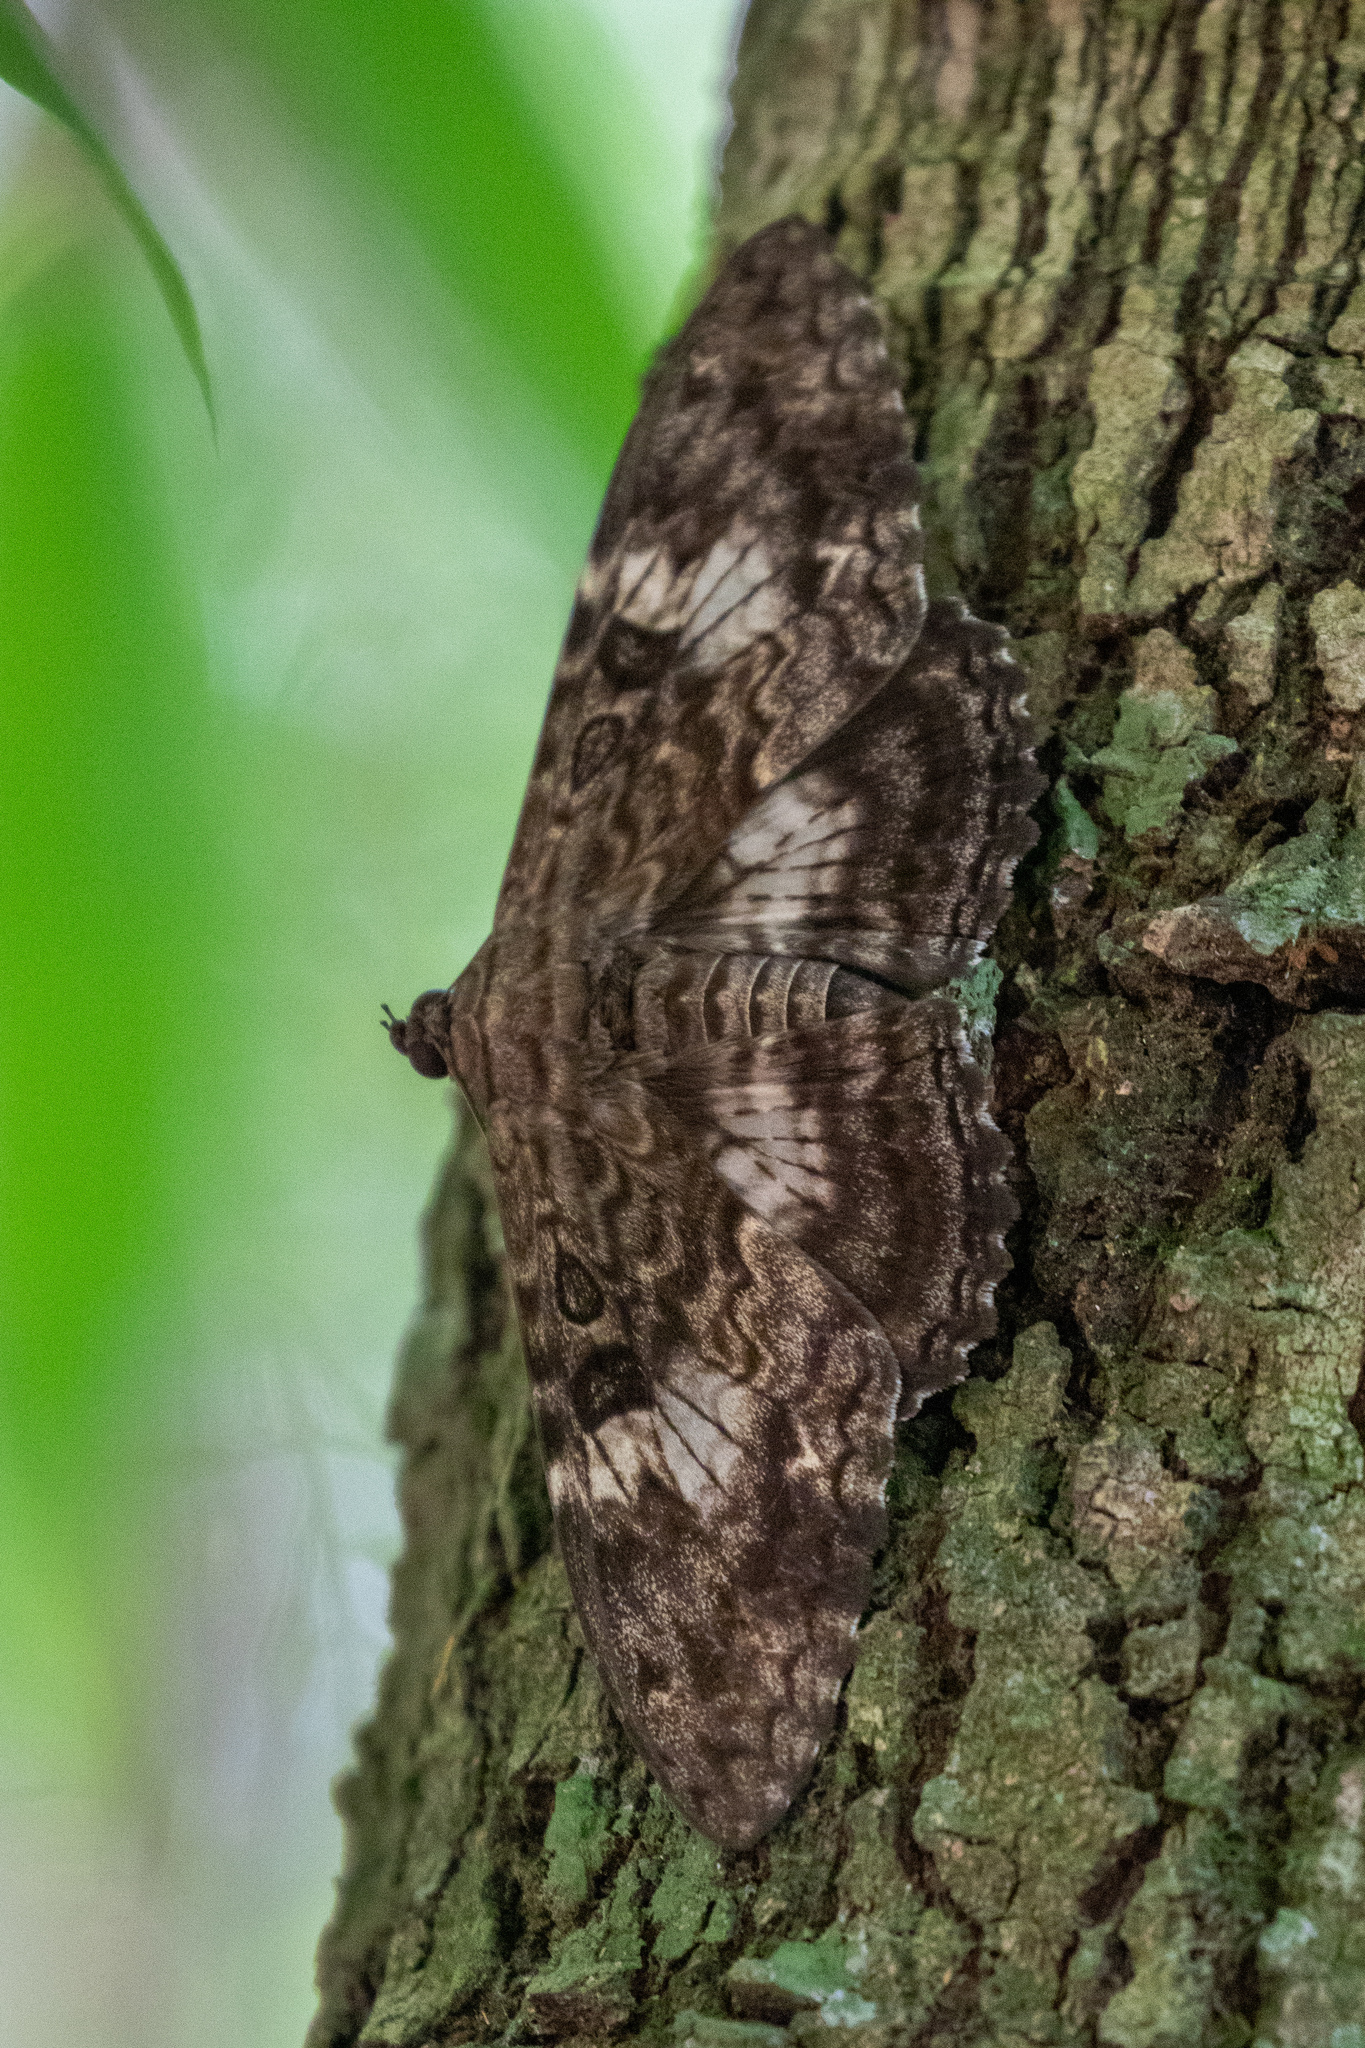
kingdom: Animalia
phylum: Arthropoda
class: Insecta
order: Lepidoptera
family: Erebidae
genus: Letis
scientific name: Letis specularis
